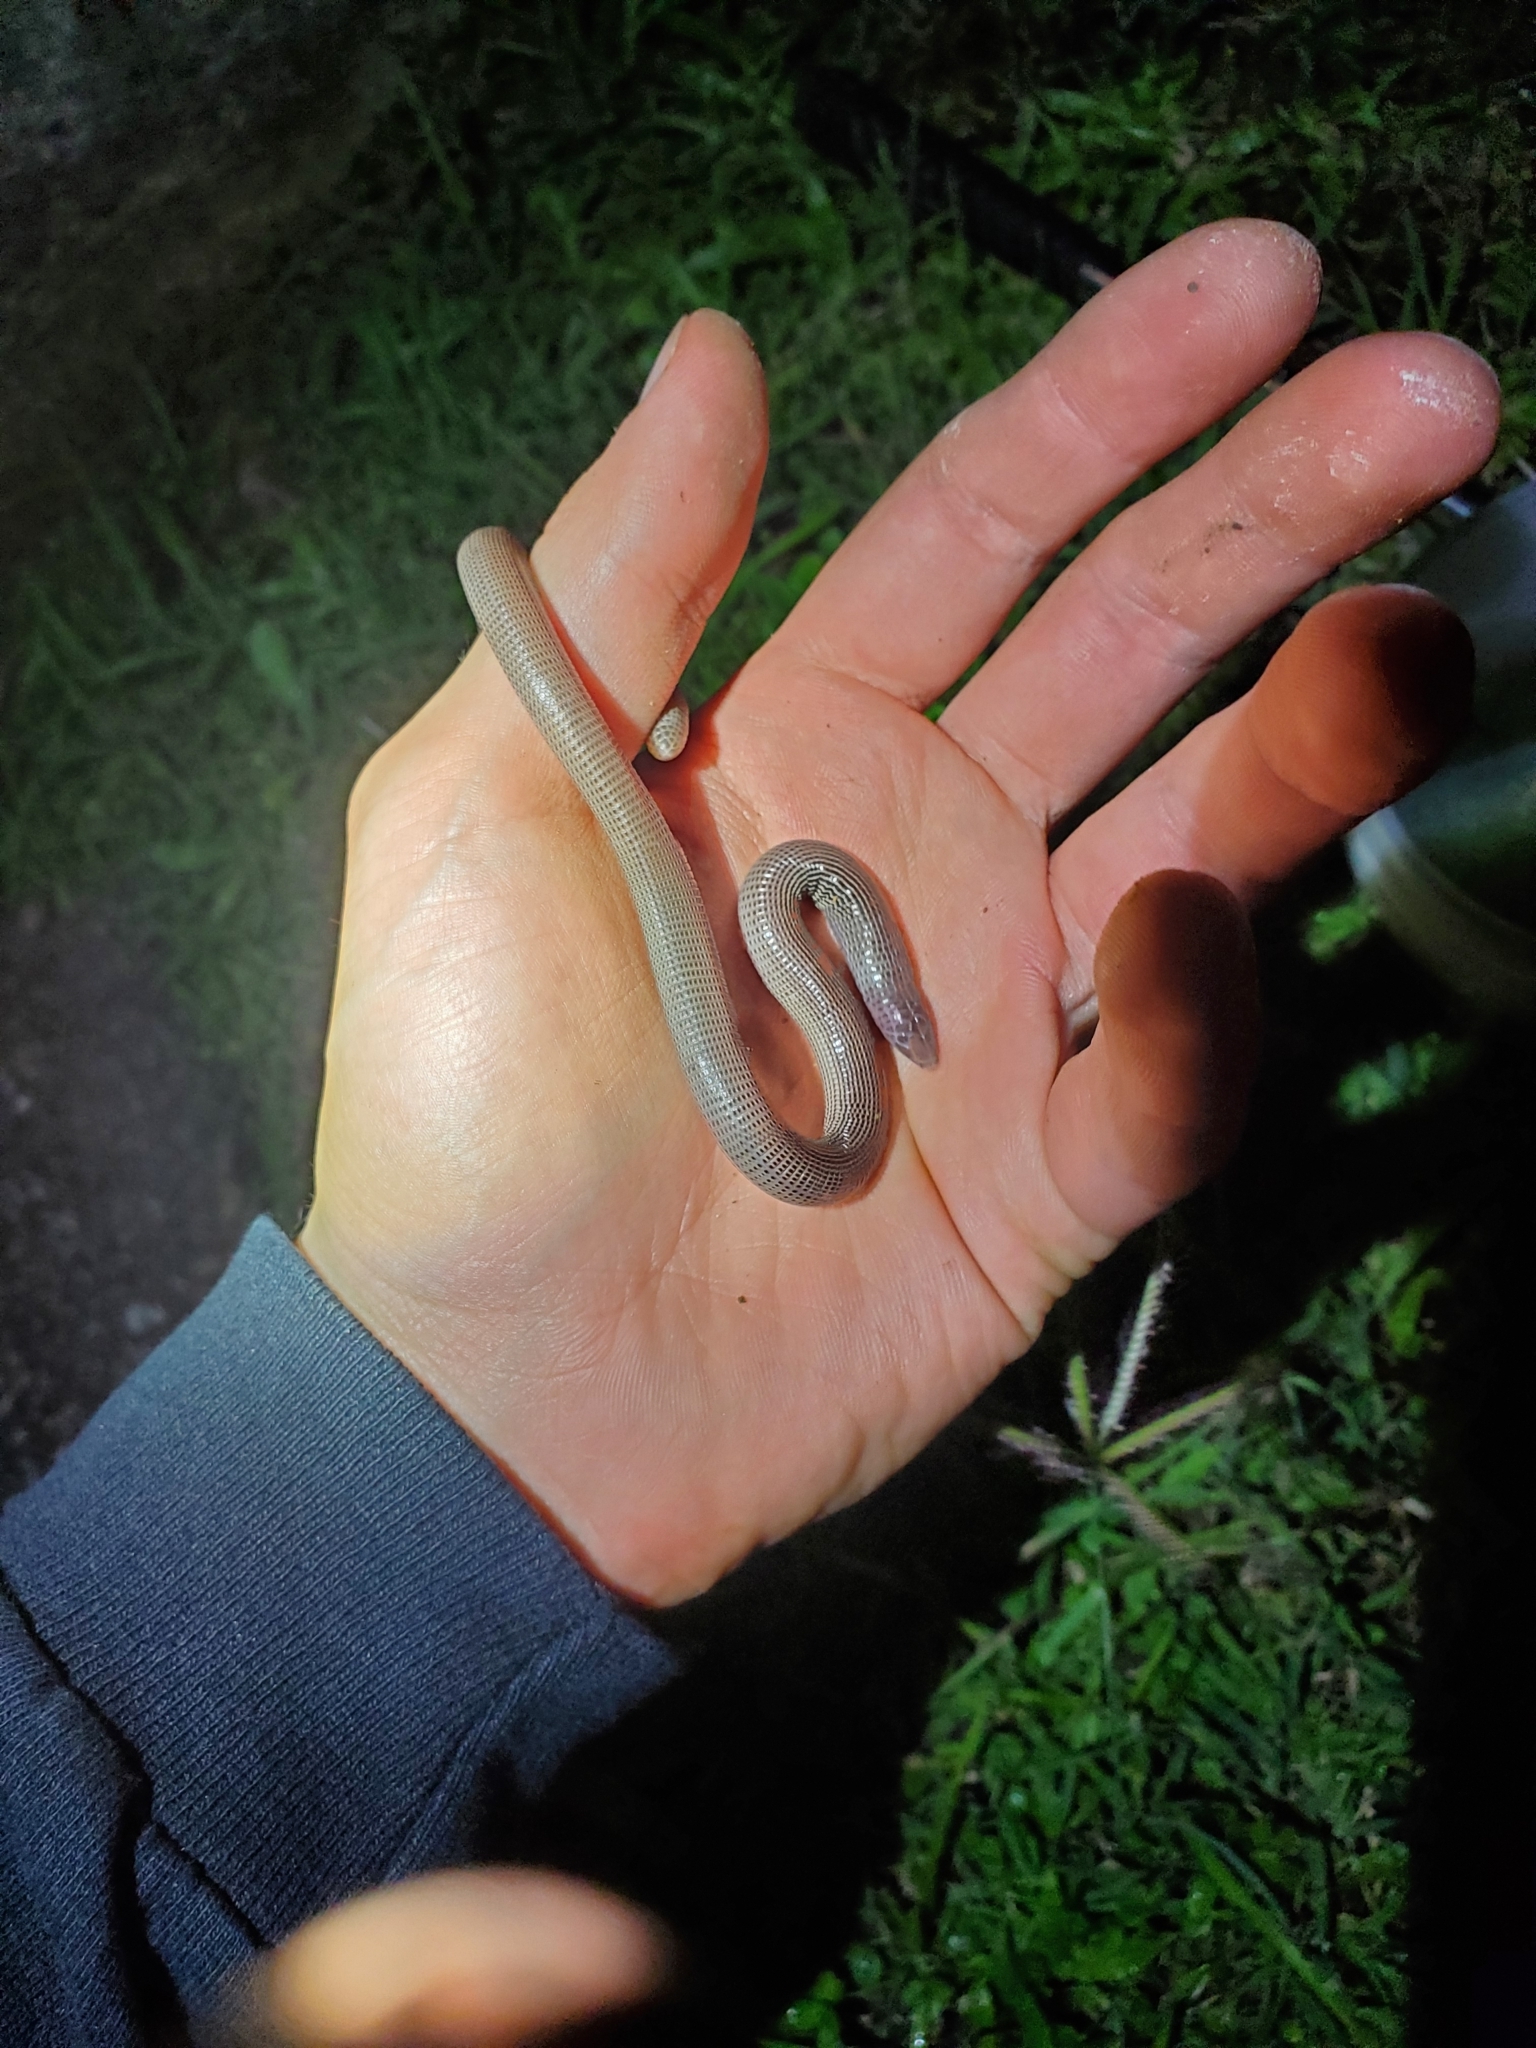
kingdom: Animalia
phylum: Chordata
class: Squamata
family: Amphisbaenidae
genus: Amphisbaena
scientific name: Amphisbaena caeca
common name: Blind worm lizard
